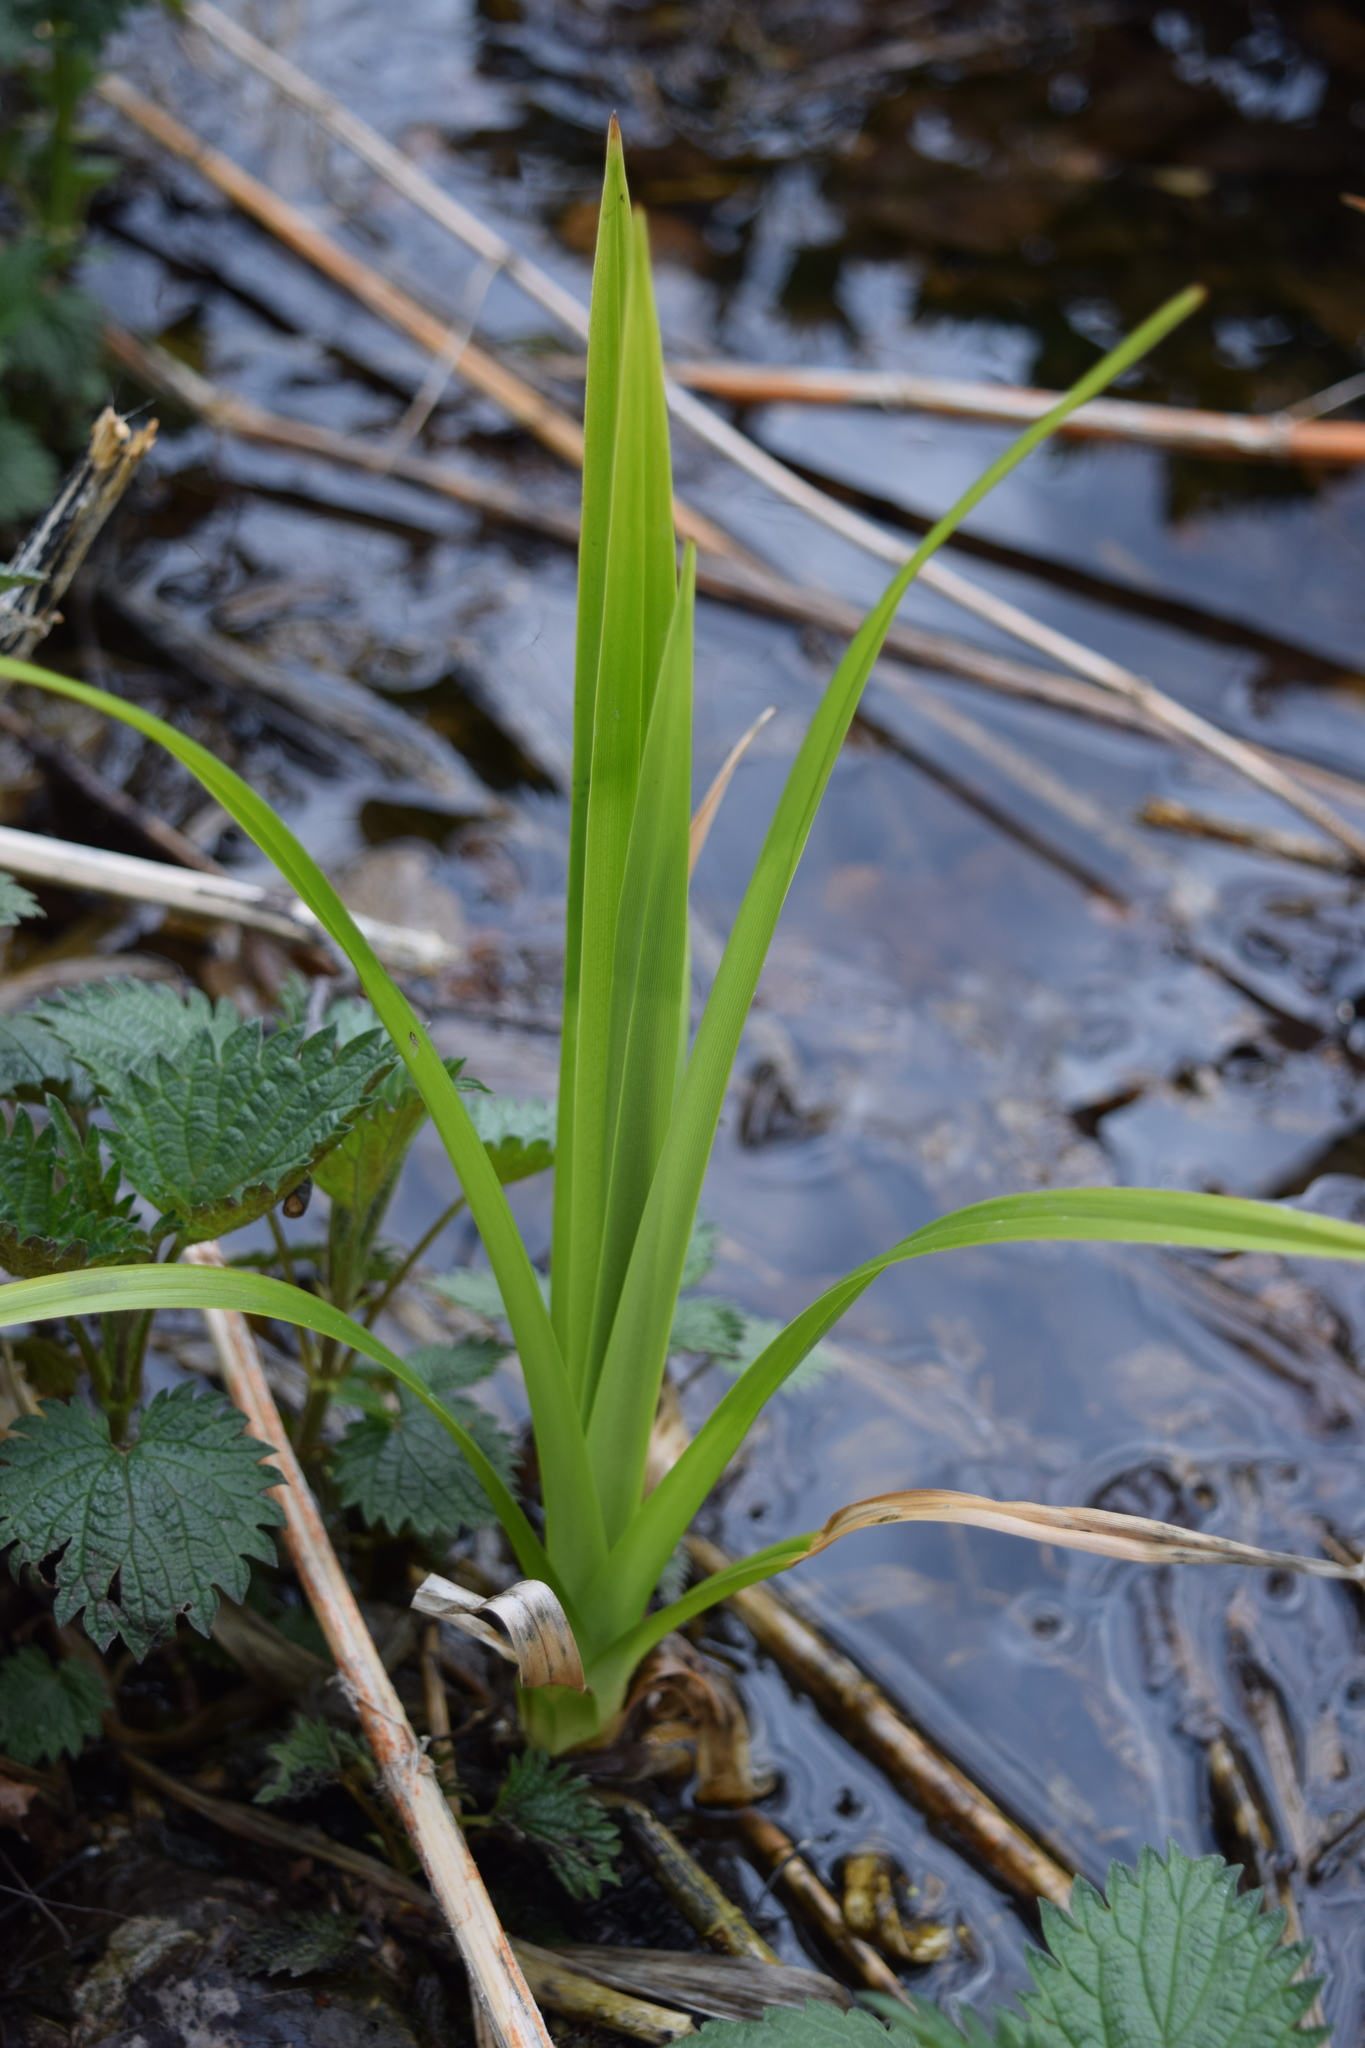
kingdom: Plantae
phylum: Tracheophyta
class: Liliopsida
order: Poales
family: Cyperaceae
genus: Scirpus
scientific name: Scirpus sylvaticus
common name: Wood club-rush
